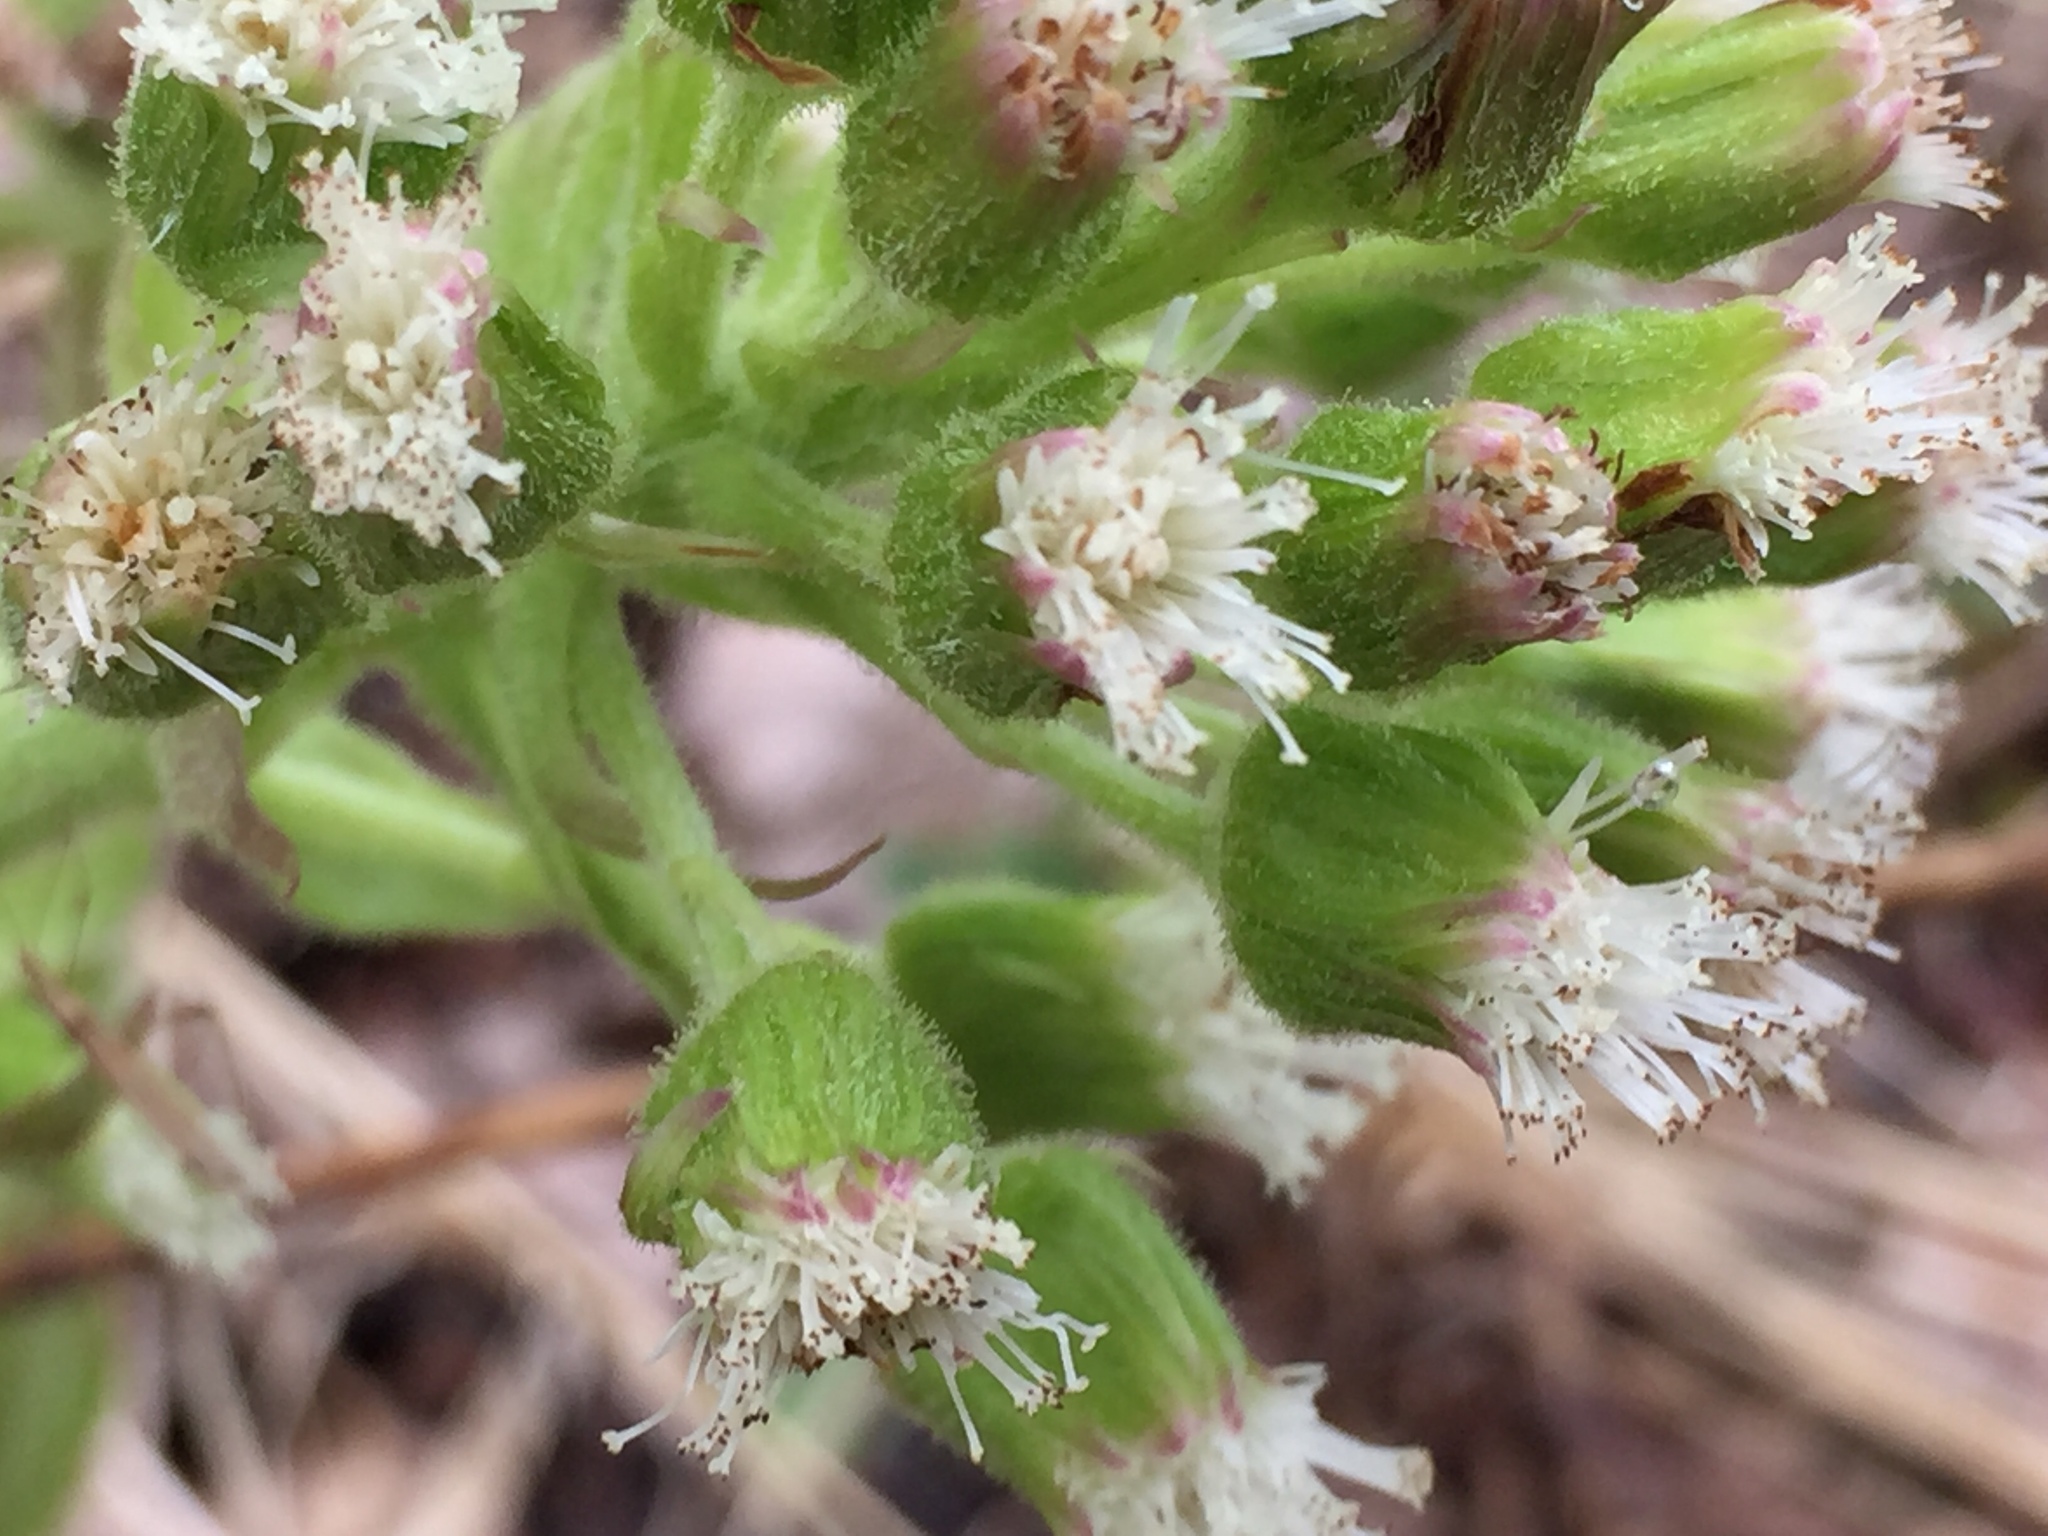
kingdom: Plantae
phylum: Tracheophyta
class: Magnoliopsida
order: Asterales
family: Asteraceae
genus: Petasites
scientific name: Petasites frigidus
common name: Arctic butterbur
